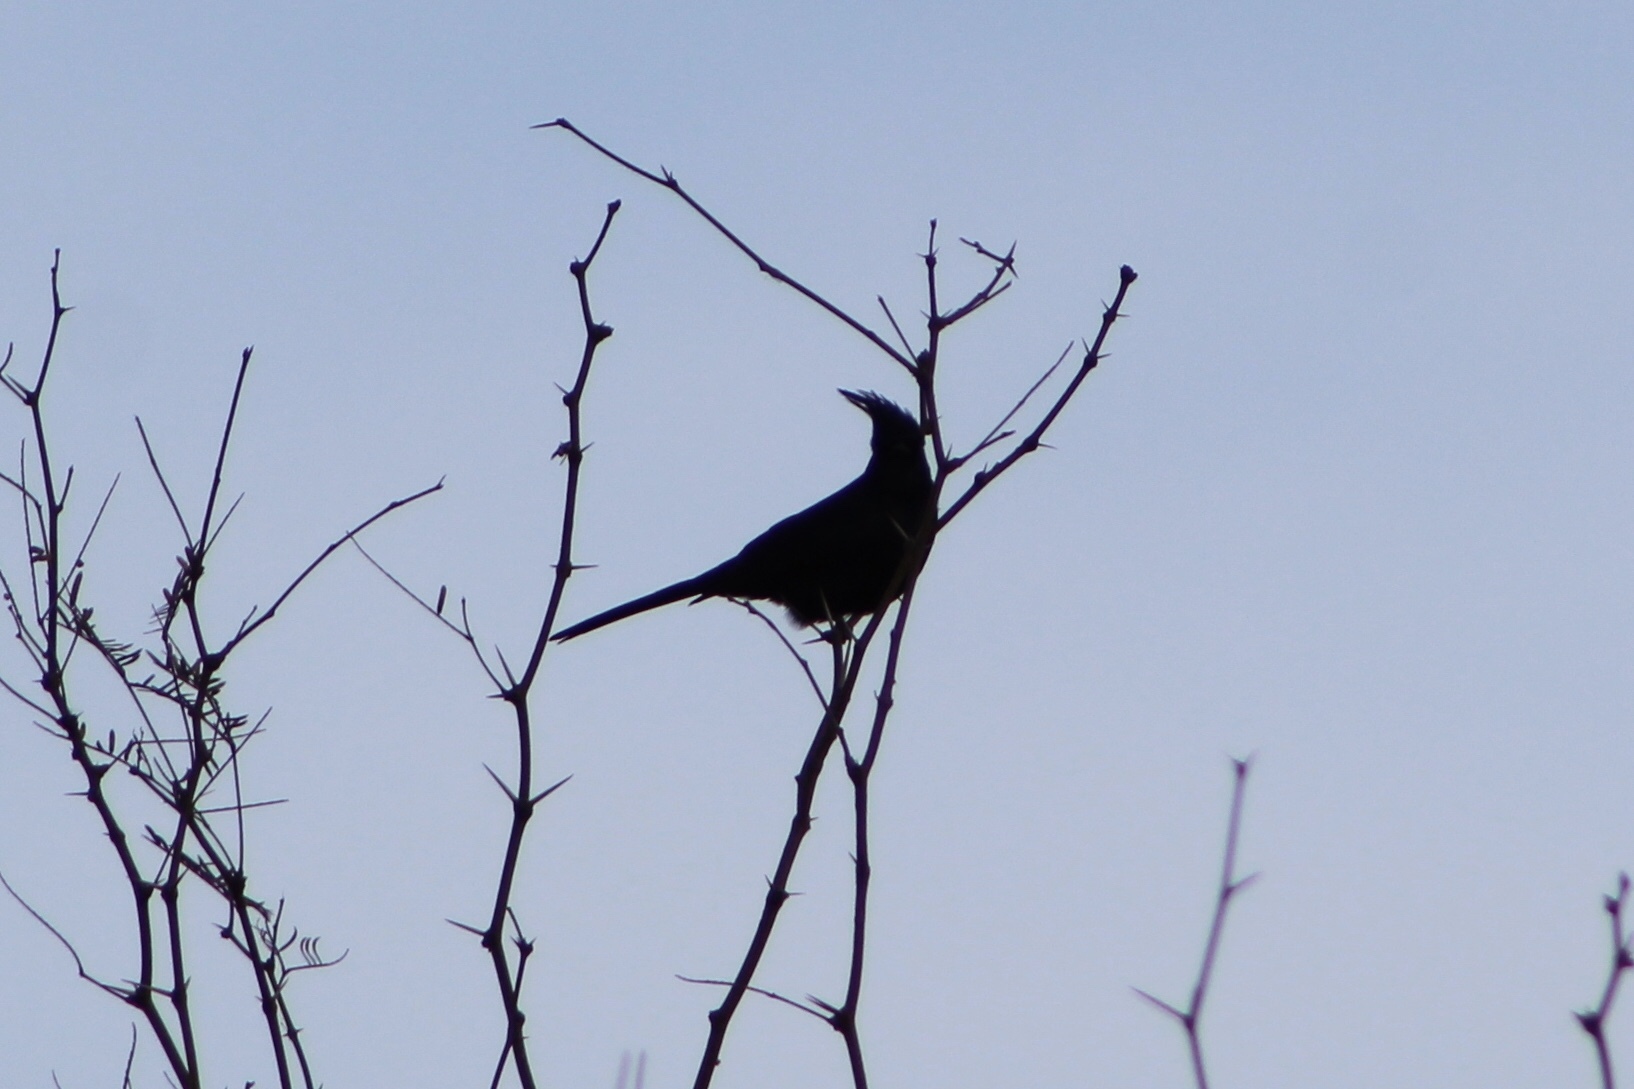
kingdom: Animalia
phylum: Chordata
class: Aves
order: Passeriformes
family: Ptilogonatidae
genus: Phainopepla
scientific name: Phainopepla nitens
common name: Phainopepla
